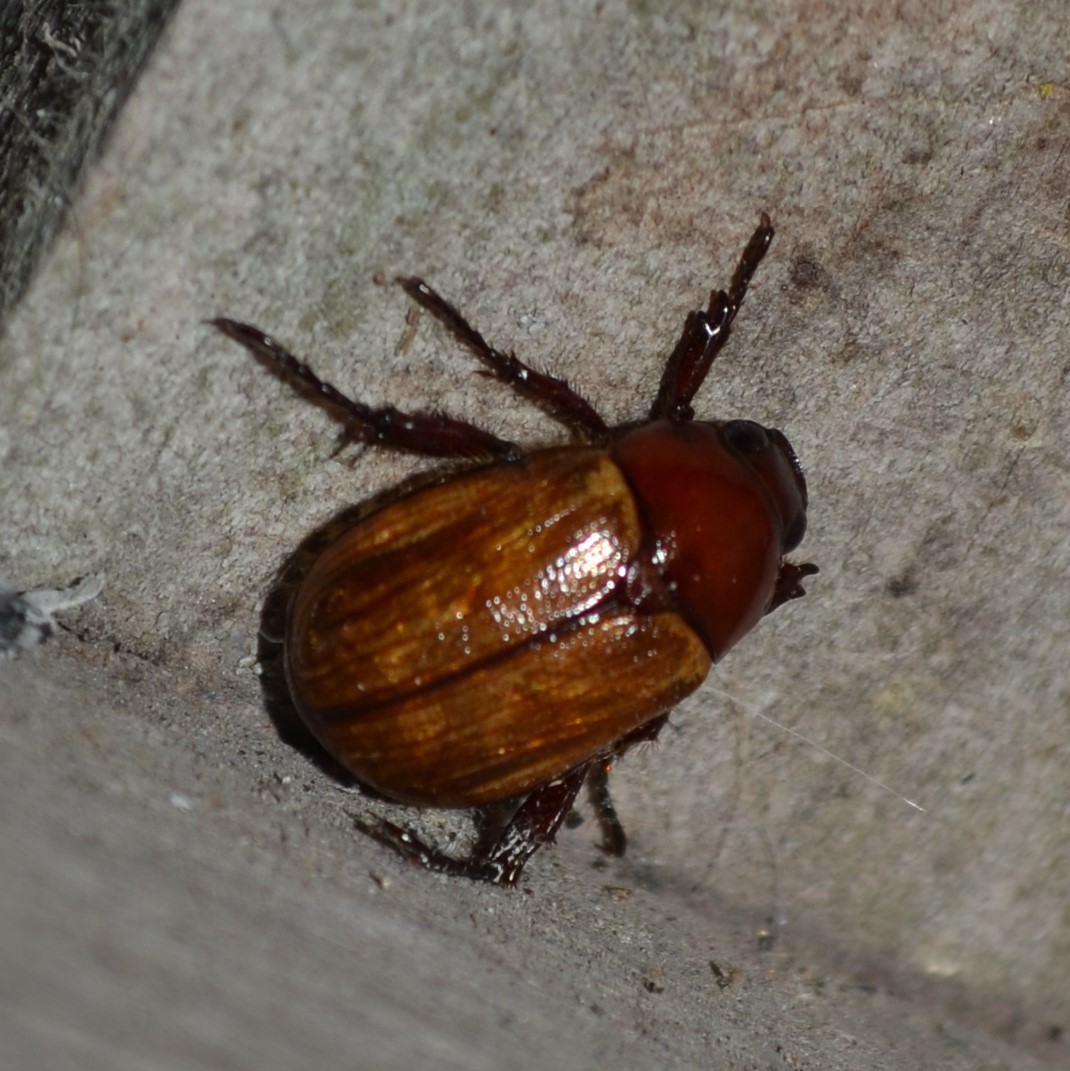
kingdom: Animalia
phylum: Arthropoda
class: Insecta
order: Coleoptera
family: Scarabaeidae
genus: Paranomala
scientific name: Paranomala flavipennis
